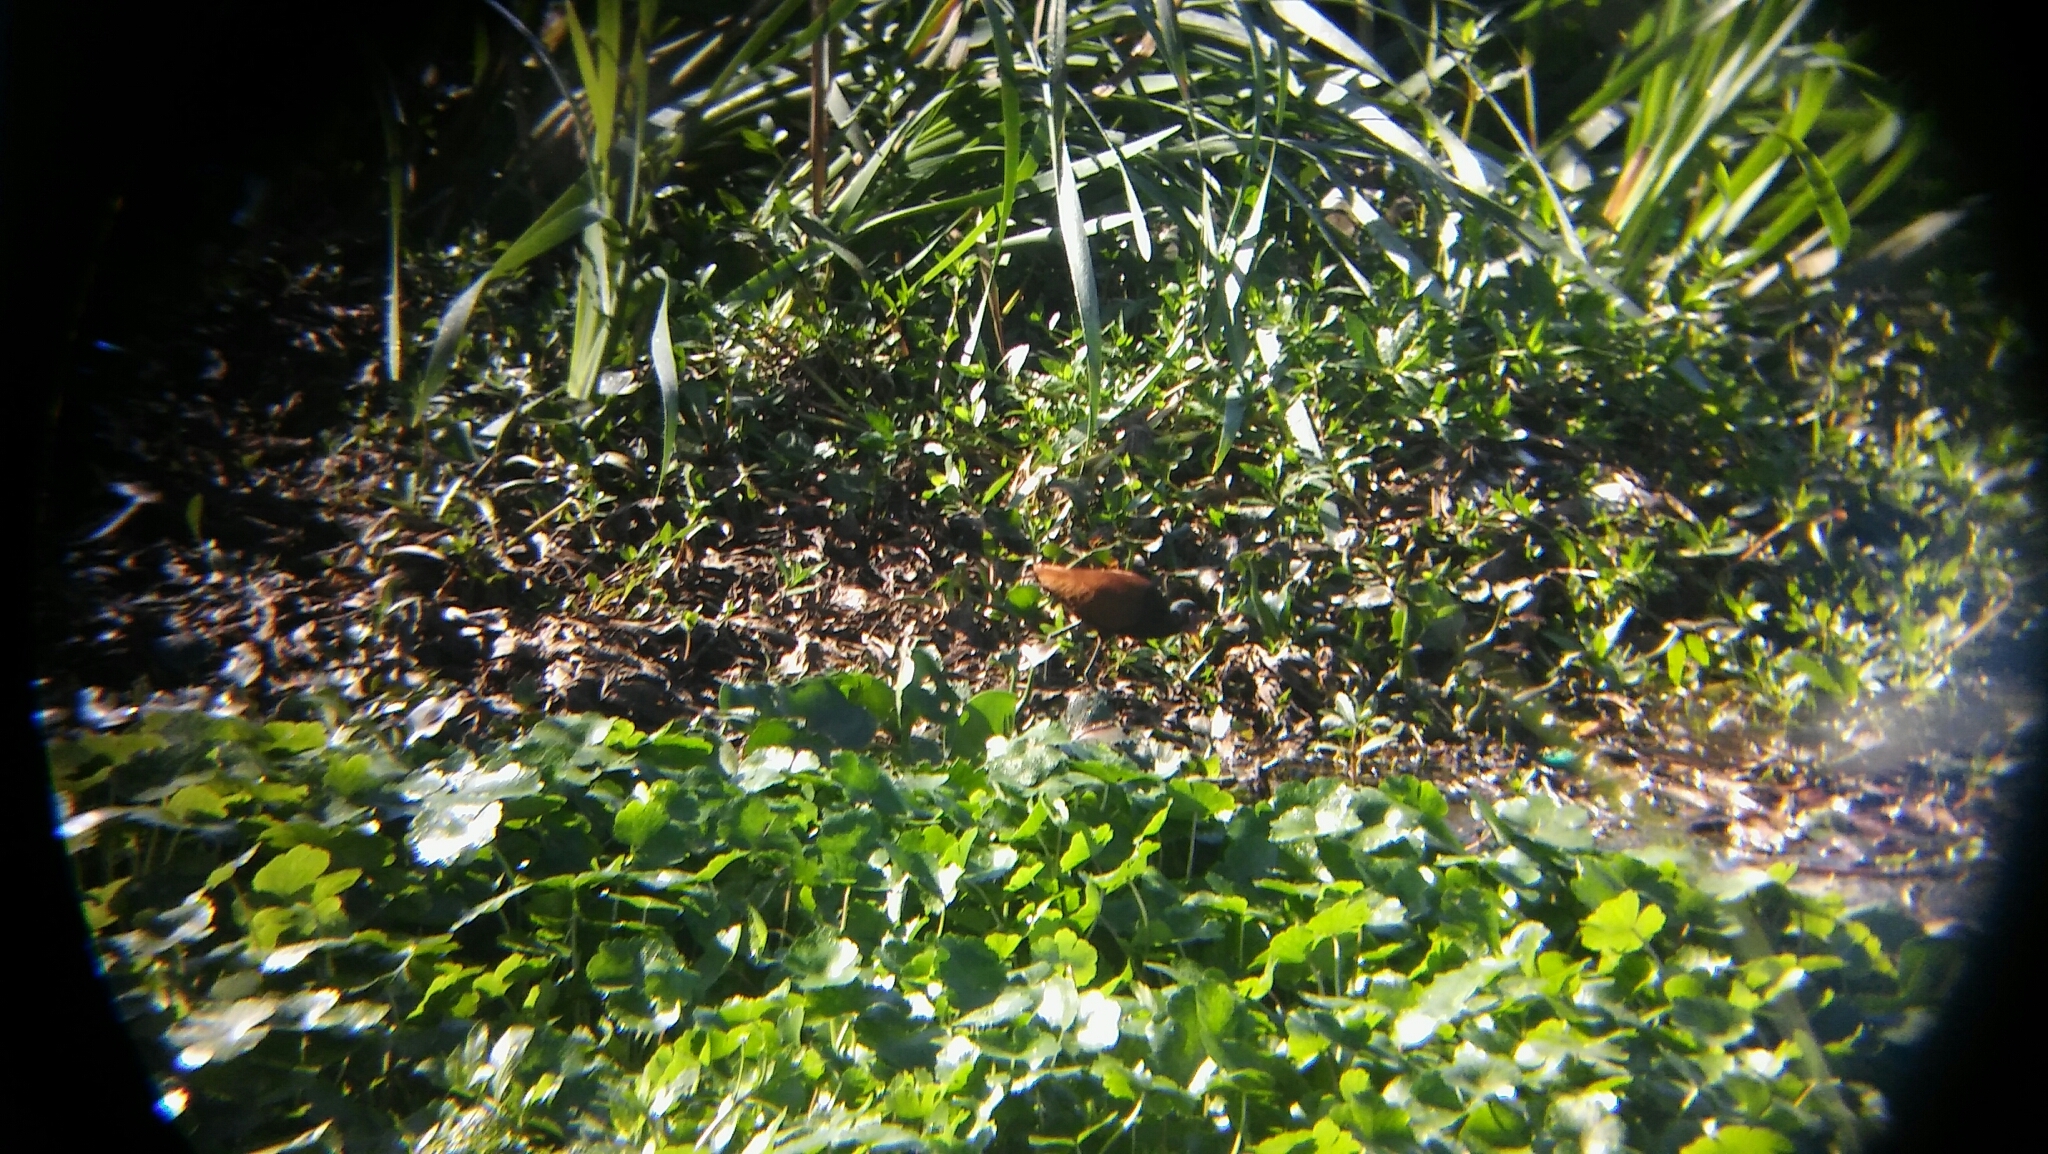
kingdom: Animalia
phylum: Chordata
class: Aves
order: Charadriiformes
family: Jacanidae
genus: Jacana
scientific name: Jacana jacana
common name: Wattled jacana
